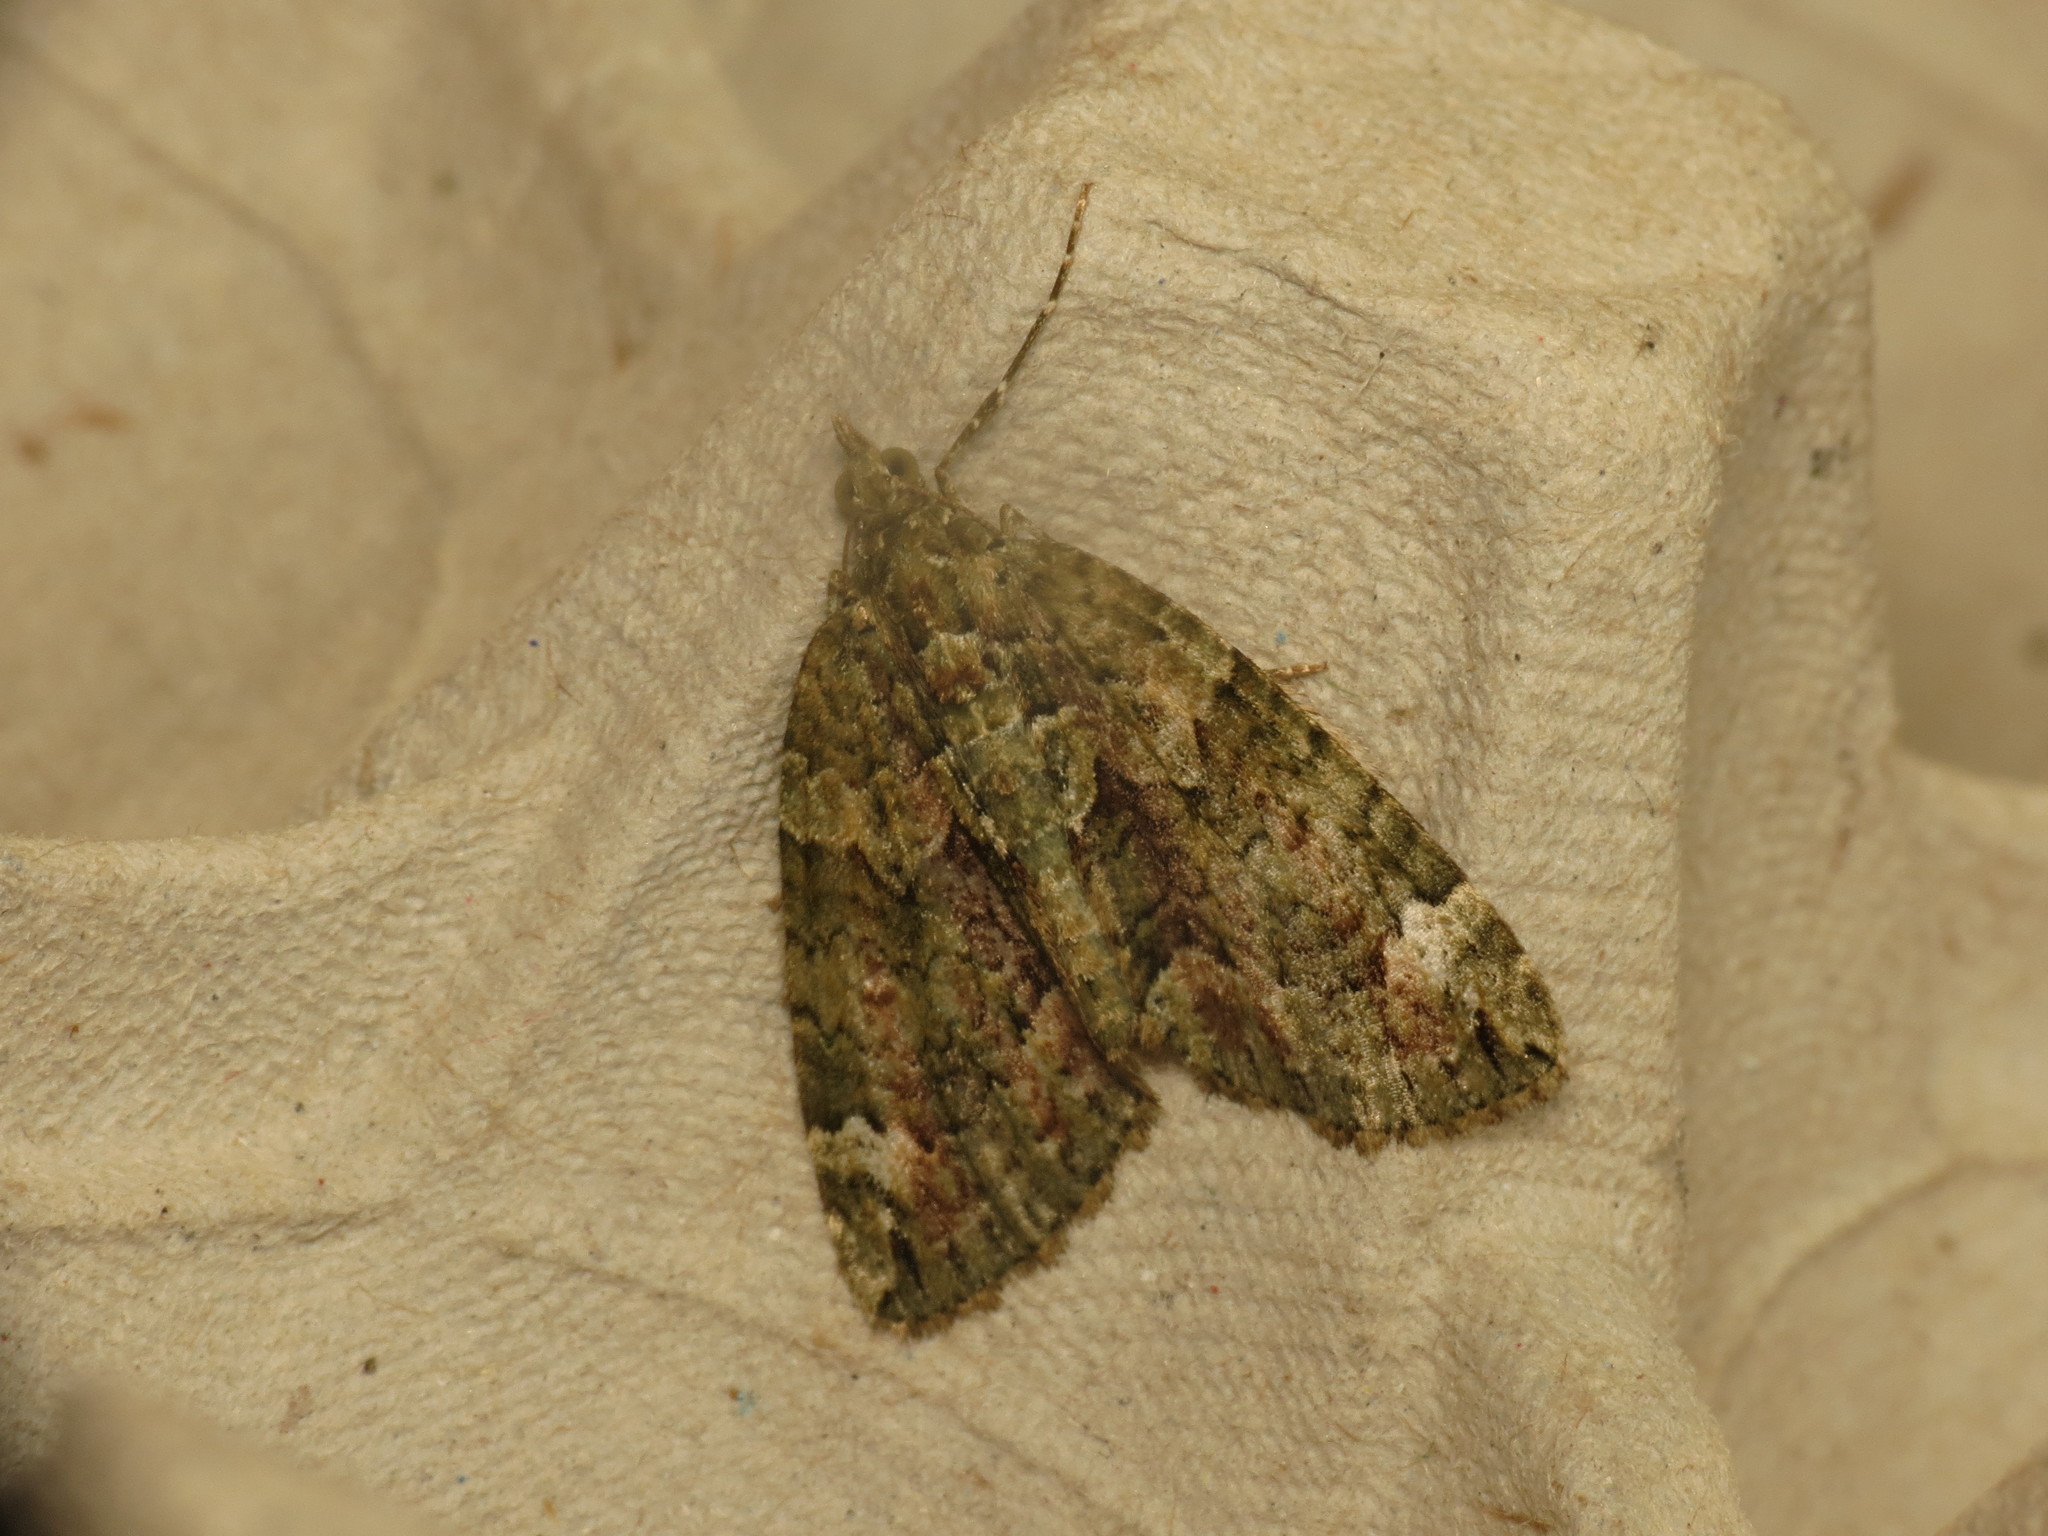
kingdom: Animalia
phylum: Arthropoda
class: Insecta
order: Lepidoptera
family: Geometridae
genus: Chloroclysta
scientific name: Chloroclysta siterata
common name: Red-green carpet
